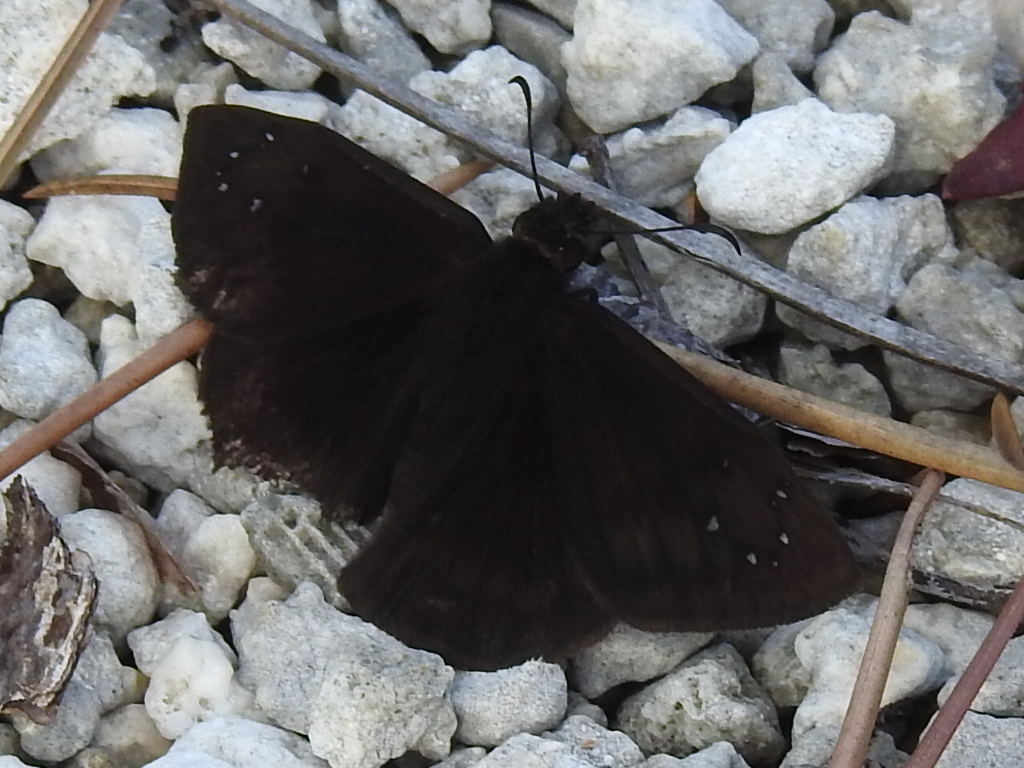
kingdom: Animalia
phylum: Arthropoda
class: Insecta
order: Lepidoptera
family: Hesperiidae
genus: Ephyriades
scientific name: Ephyriades brunnea
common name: Florida duskywing
